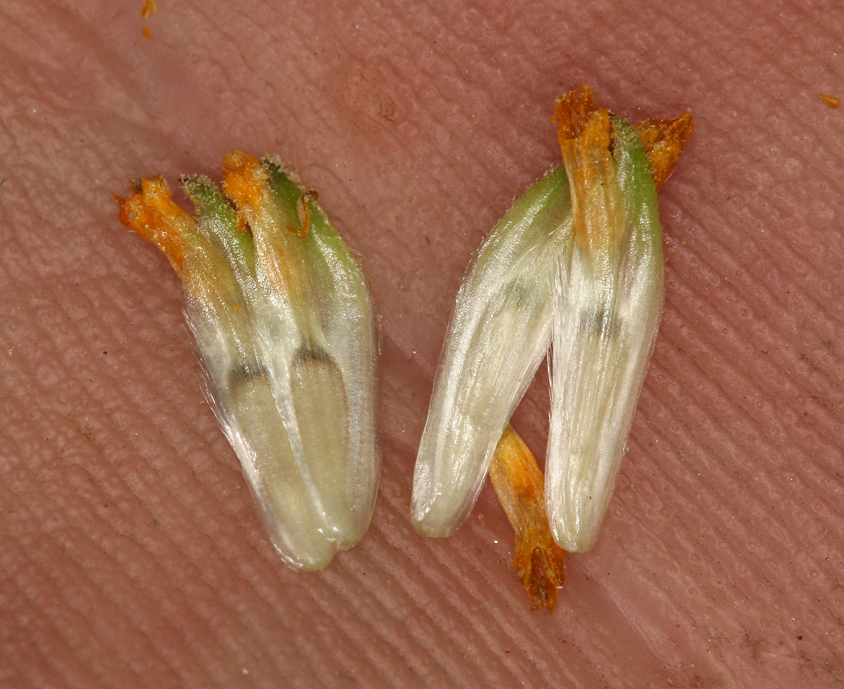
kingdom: Plantae
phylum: Tracheophyta
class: Magnoliopsida
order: Asterales
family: Asteraceae
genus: Encelia
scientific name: Encelia actoni
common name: Acton encelia
